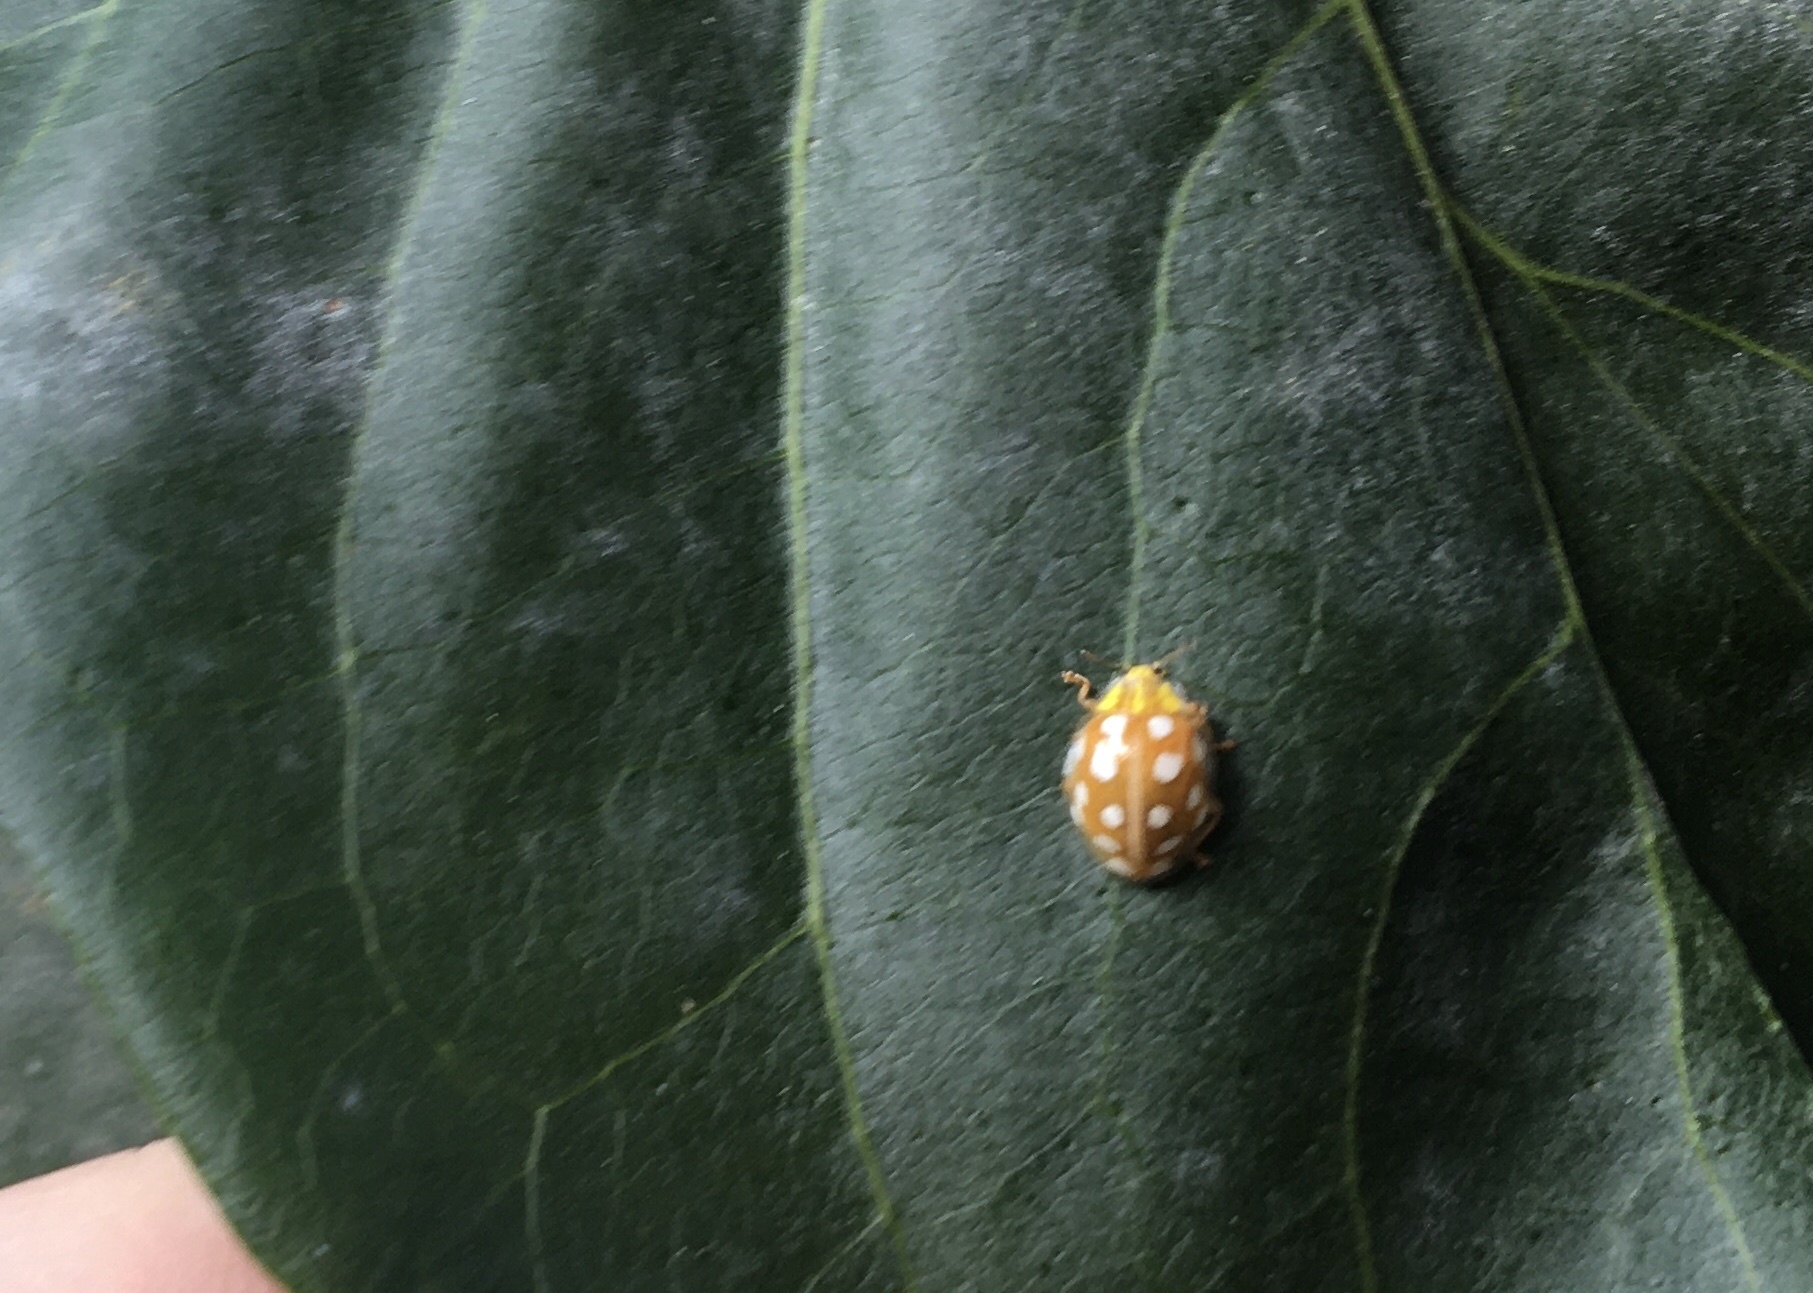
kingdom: Animalia
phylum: Arthropoda
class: Insecta
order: Coleoptera
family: Coccinellidae
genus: Halyzia
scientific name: Halyzia sedecimguttata
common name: Orange ladybird
